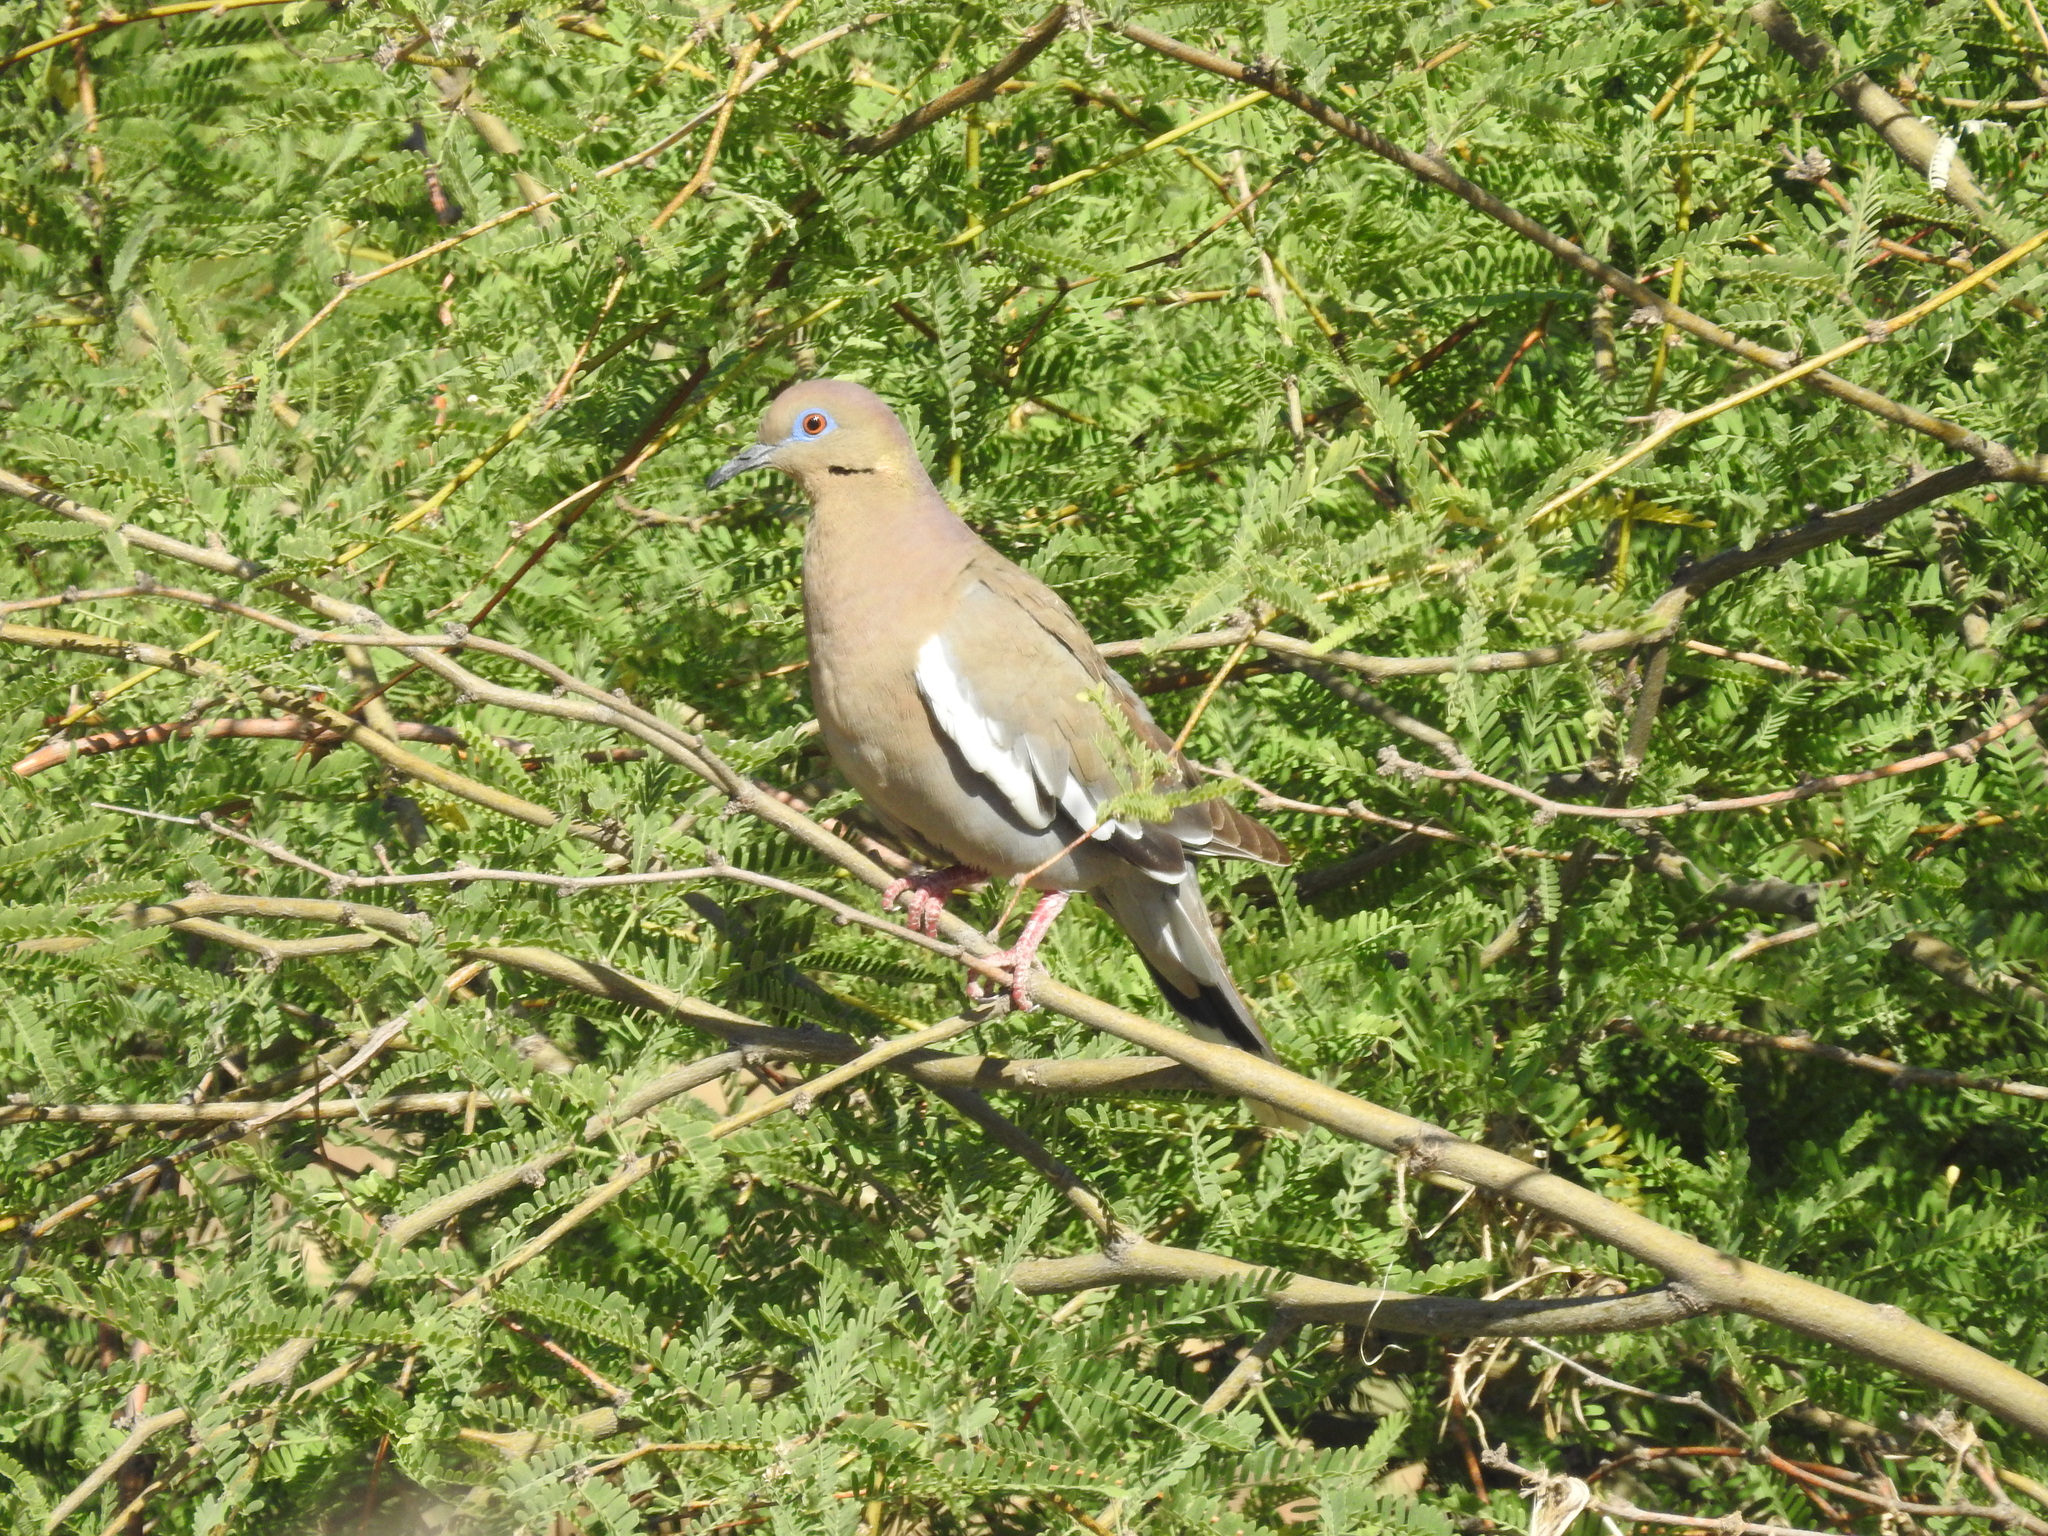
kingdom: Animalia
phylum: Chordata
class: Aves
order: Columbiformes
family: Columbidae
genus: Zenaida
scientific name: Zenaida asiatica
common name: White-winged dove
